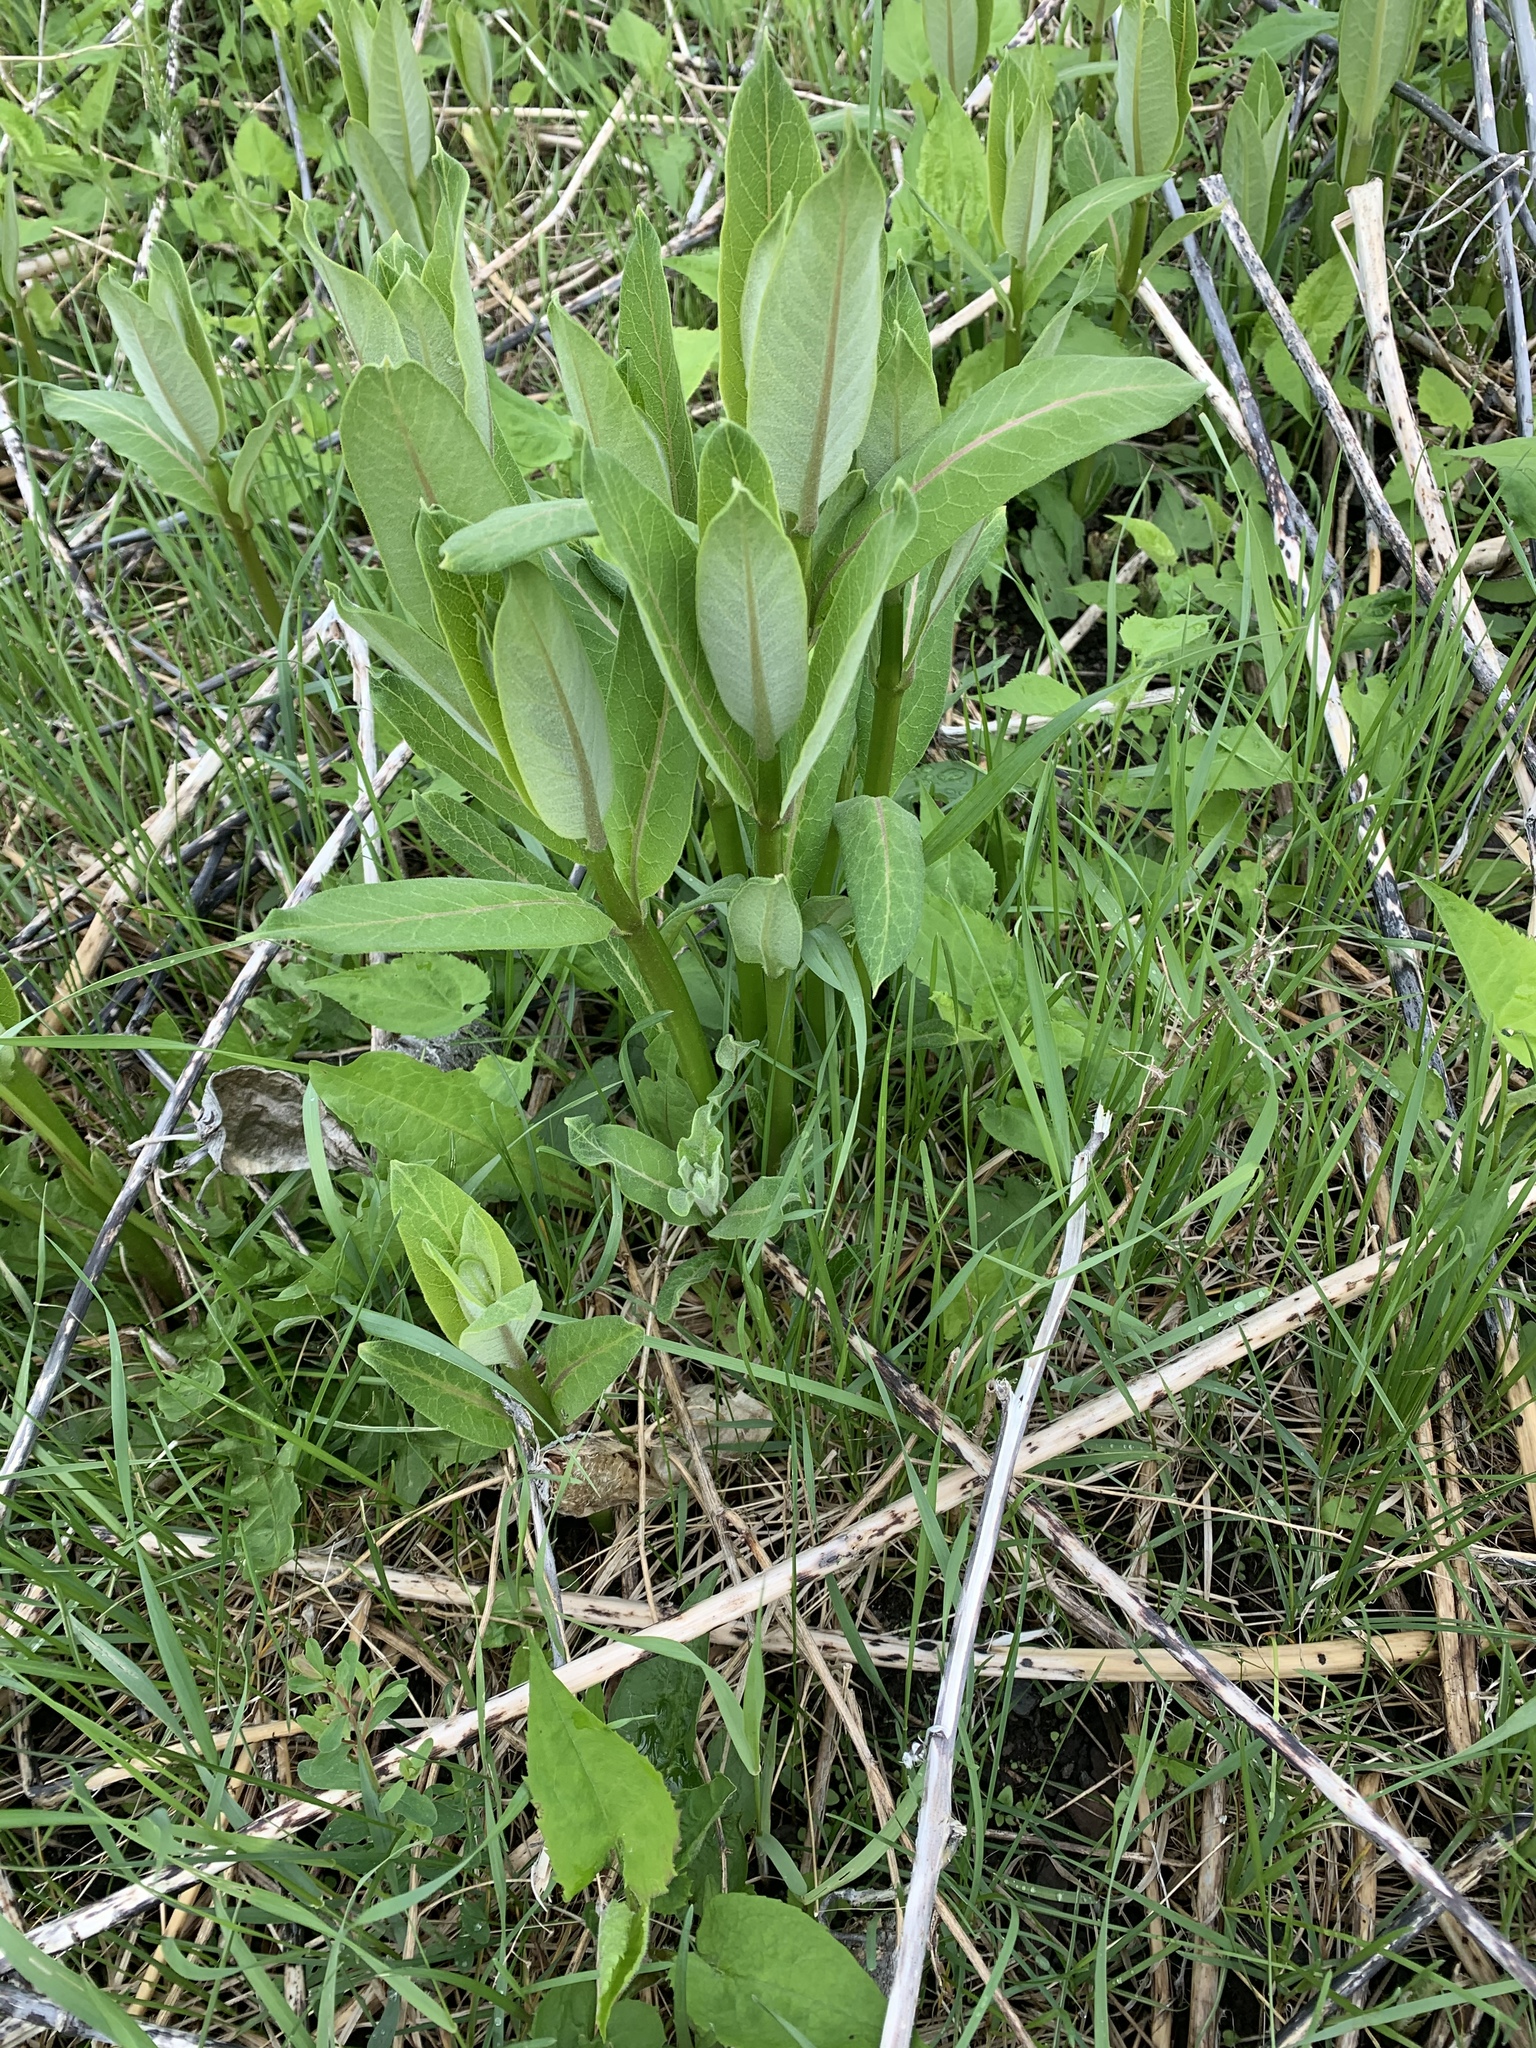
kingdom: Plantae
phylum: Tracheophyta
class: Magnoliopsida
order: Gentianales
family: Apocynaceae
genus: Asclepias
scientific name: Asclepias syriaca
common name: Common milkweed
